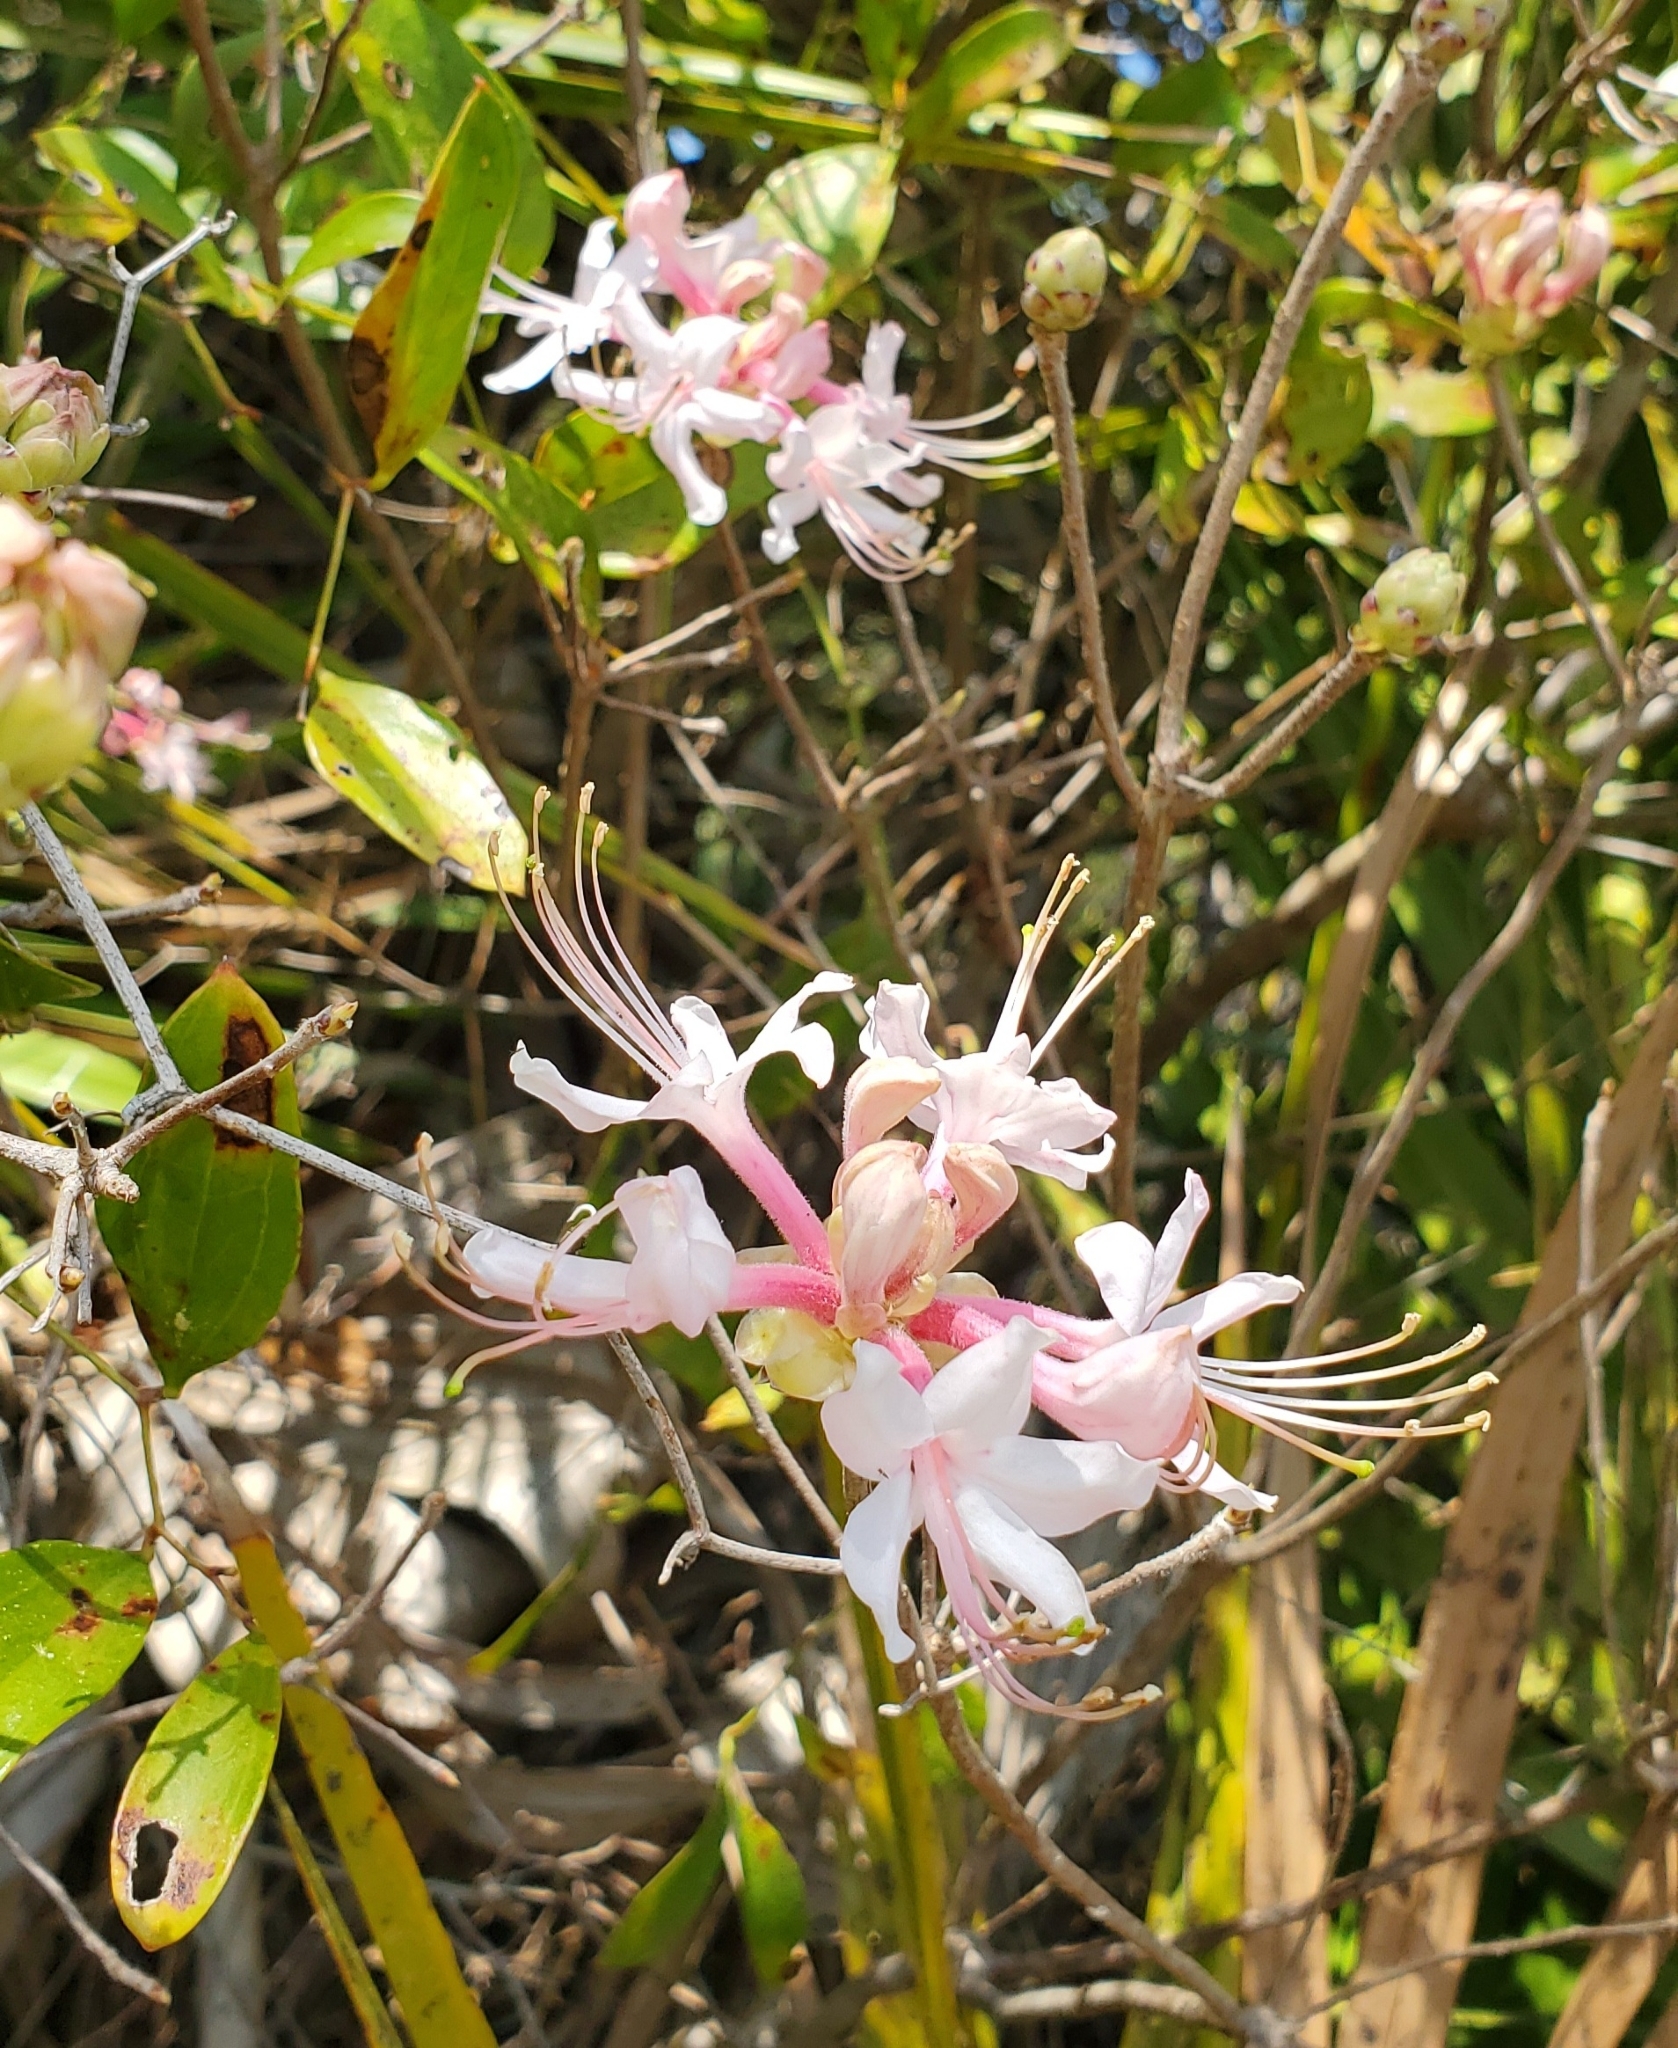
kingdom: Plantae
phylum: Tracheophyta
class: Magnoliopsida
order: Ericales
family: Ericaceae
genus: Rhododendron
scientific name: Rhododendron canescens
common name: Mountain azalea
